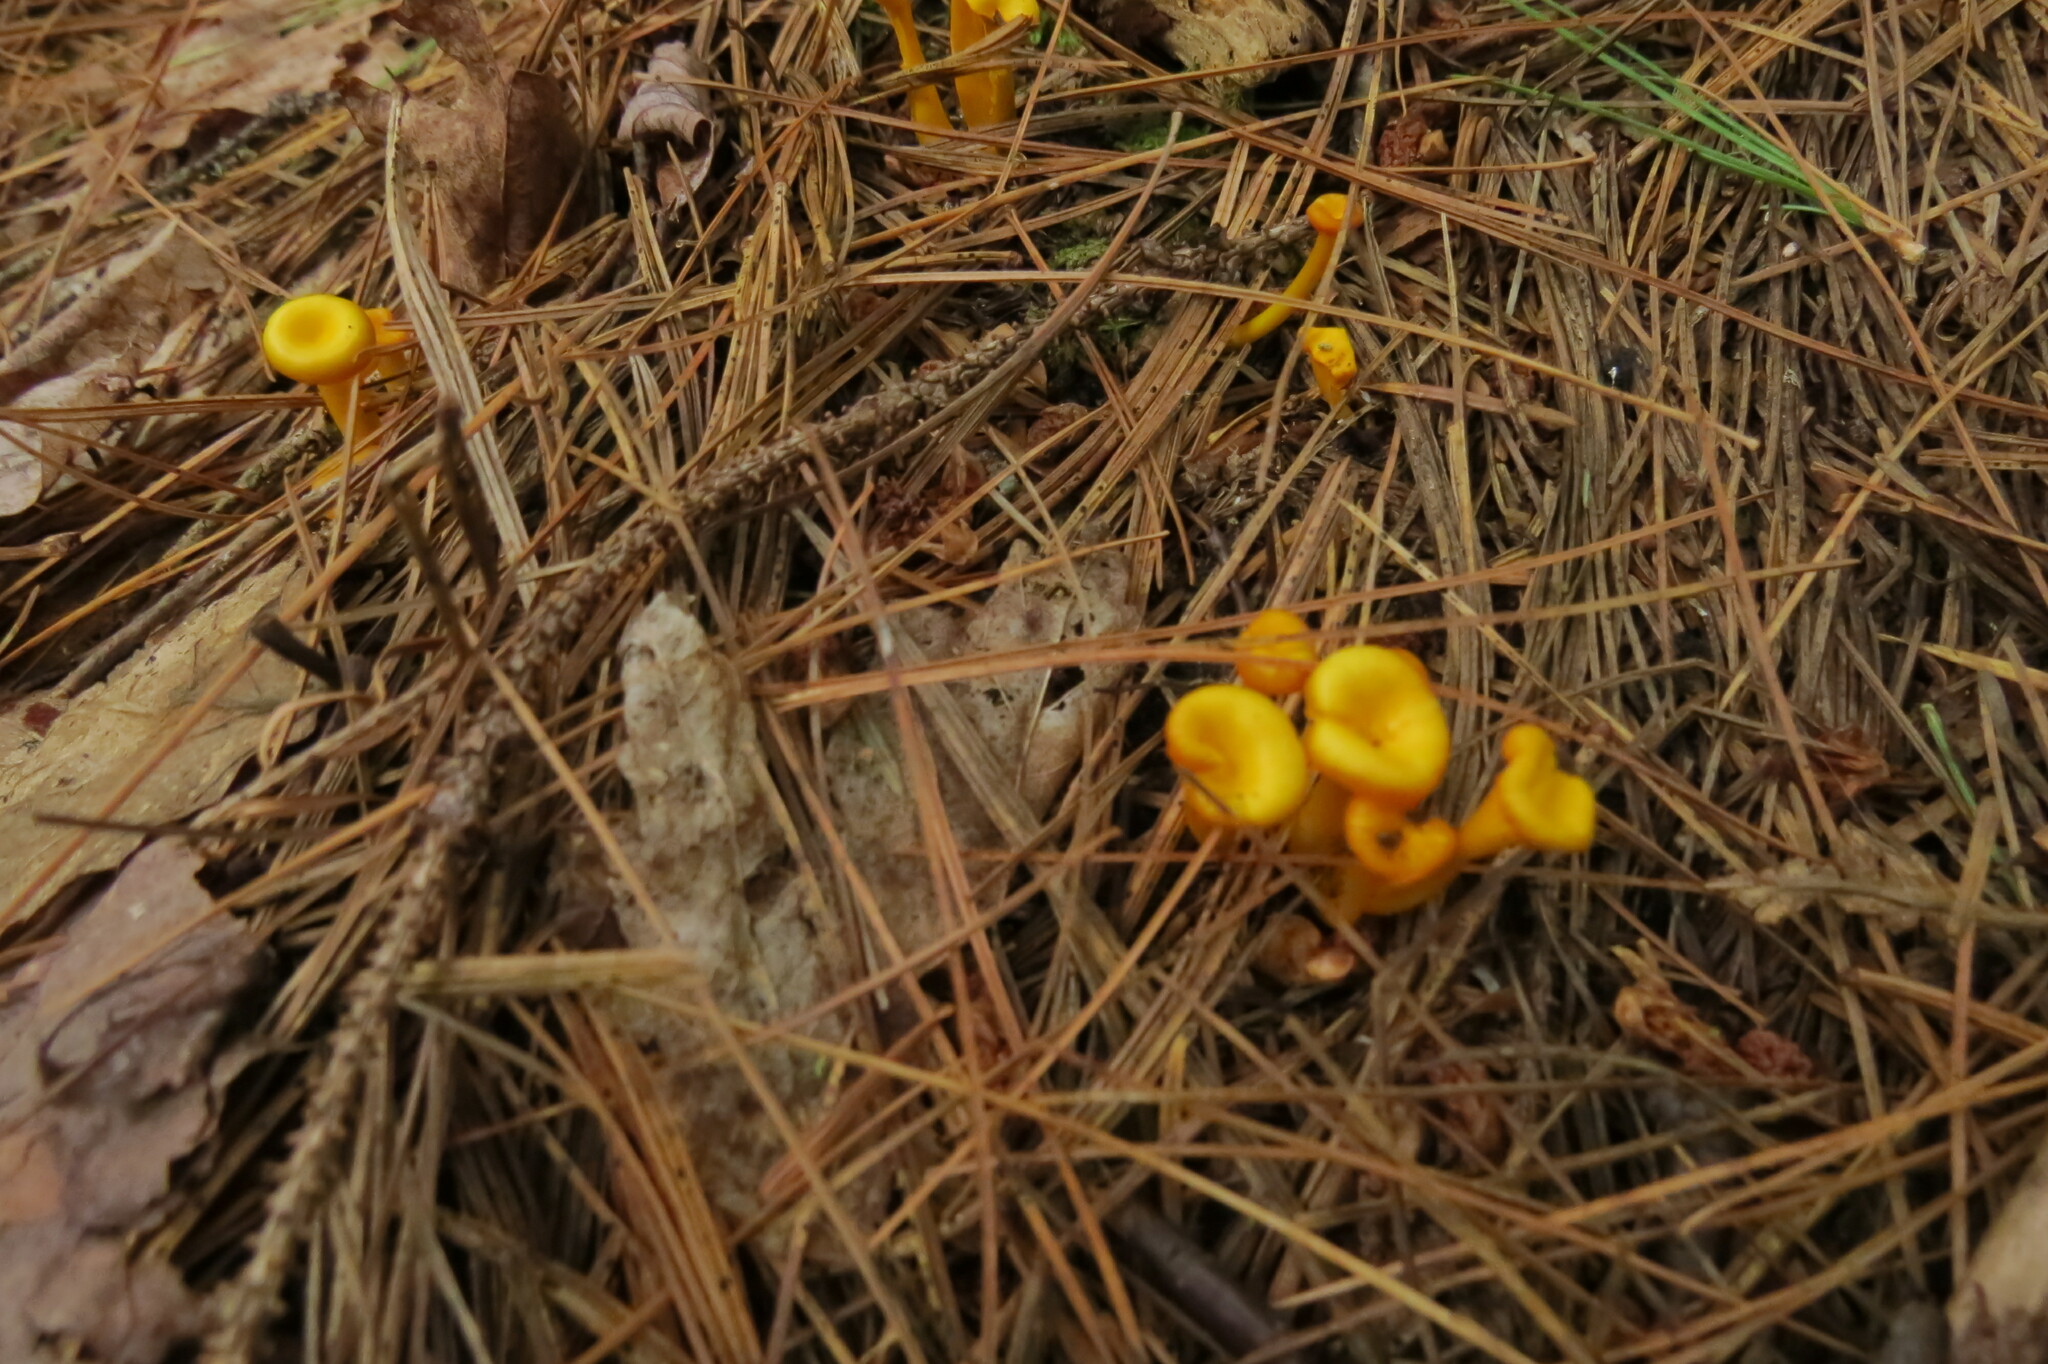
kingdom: Fungi
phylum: Basidiomycota
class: Agaricomycetes
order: Agaricales
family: Hygrophoraceae
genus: Gloioxanthomyces
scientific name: Gloioxanthomyces nitidus
